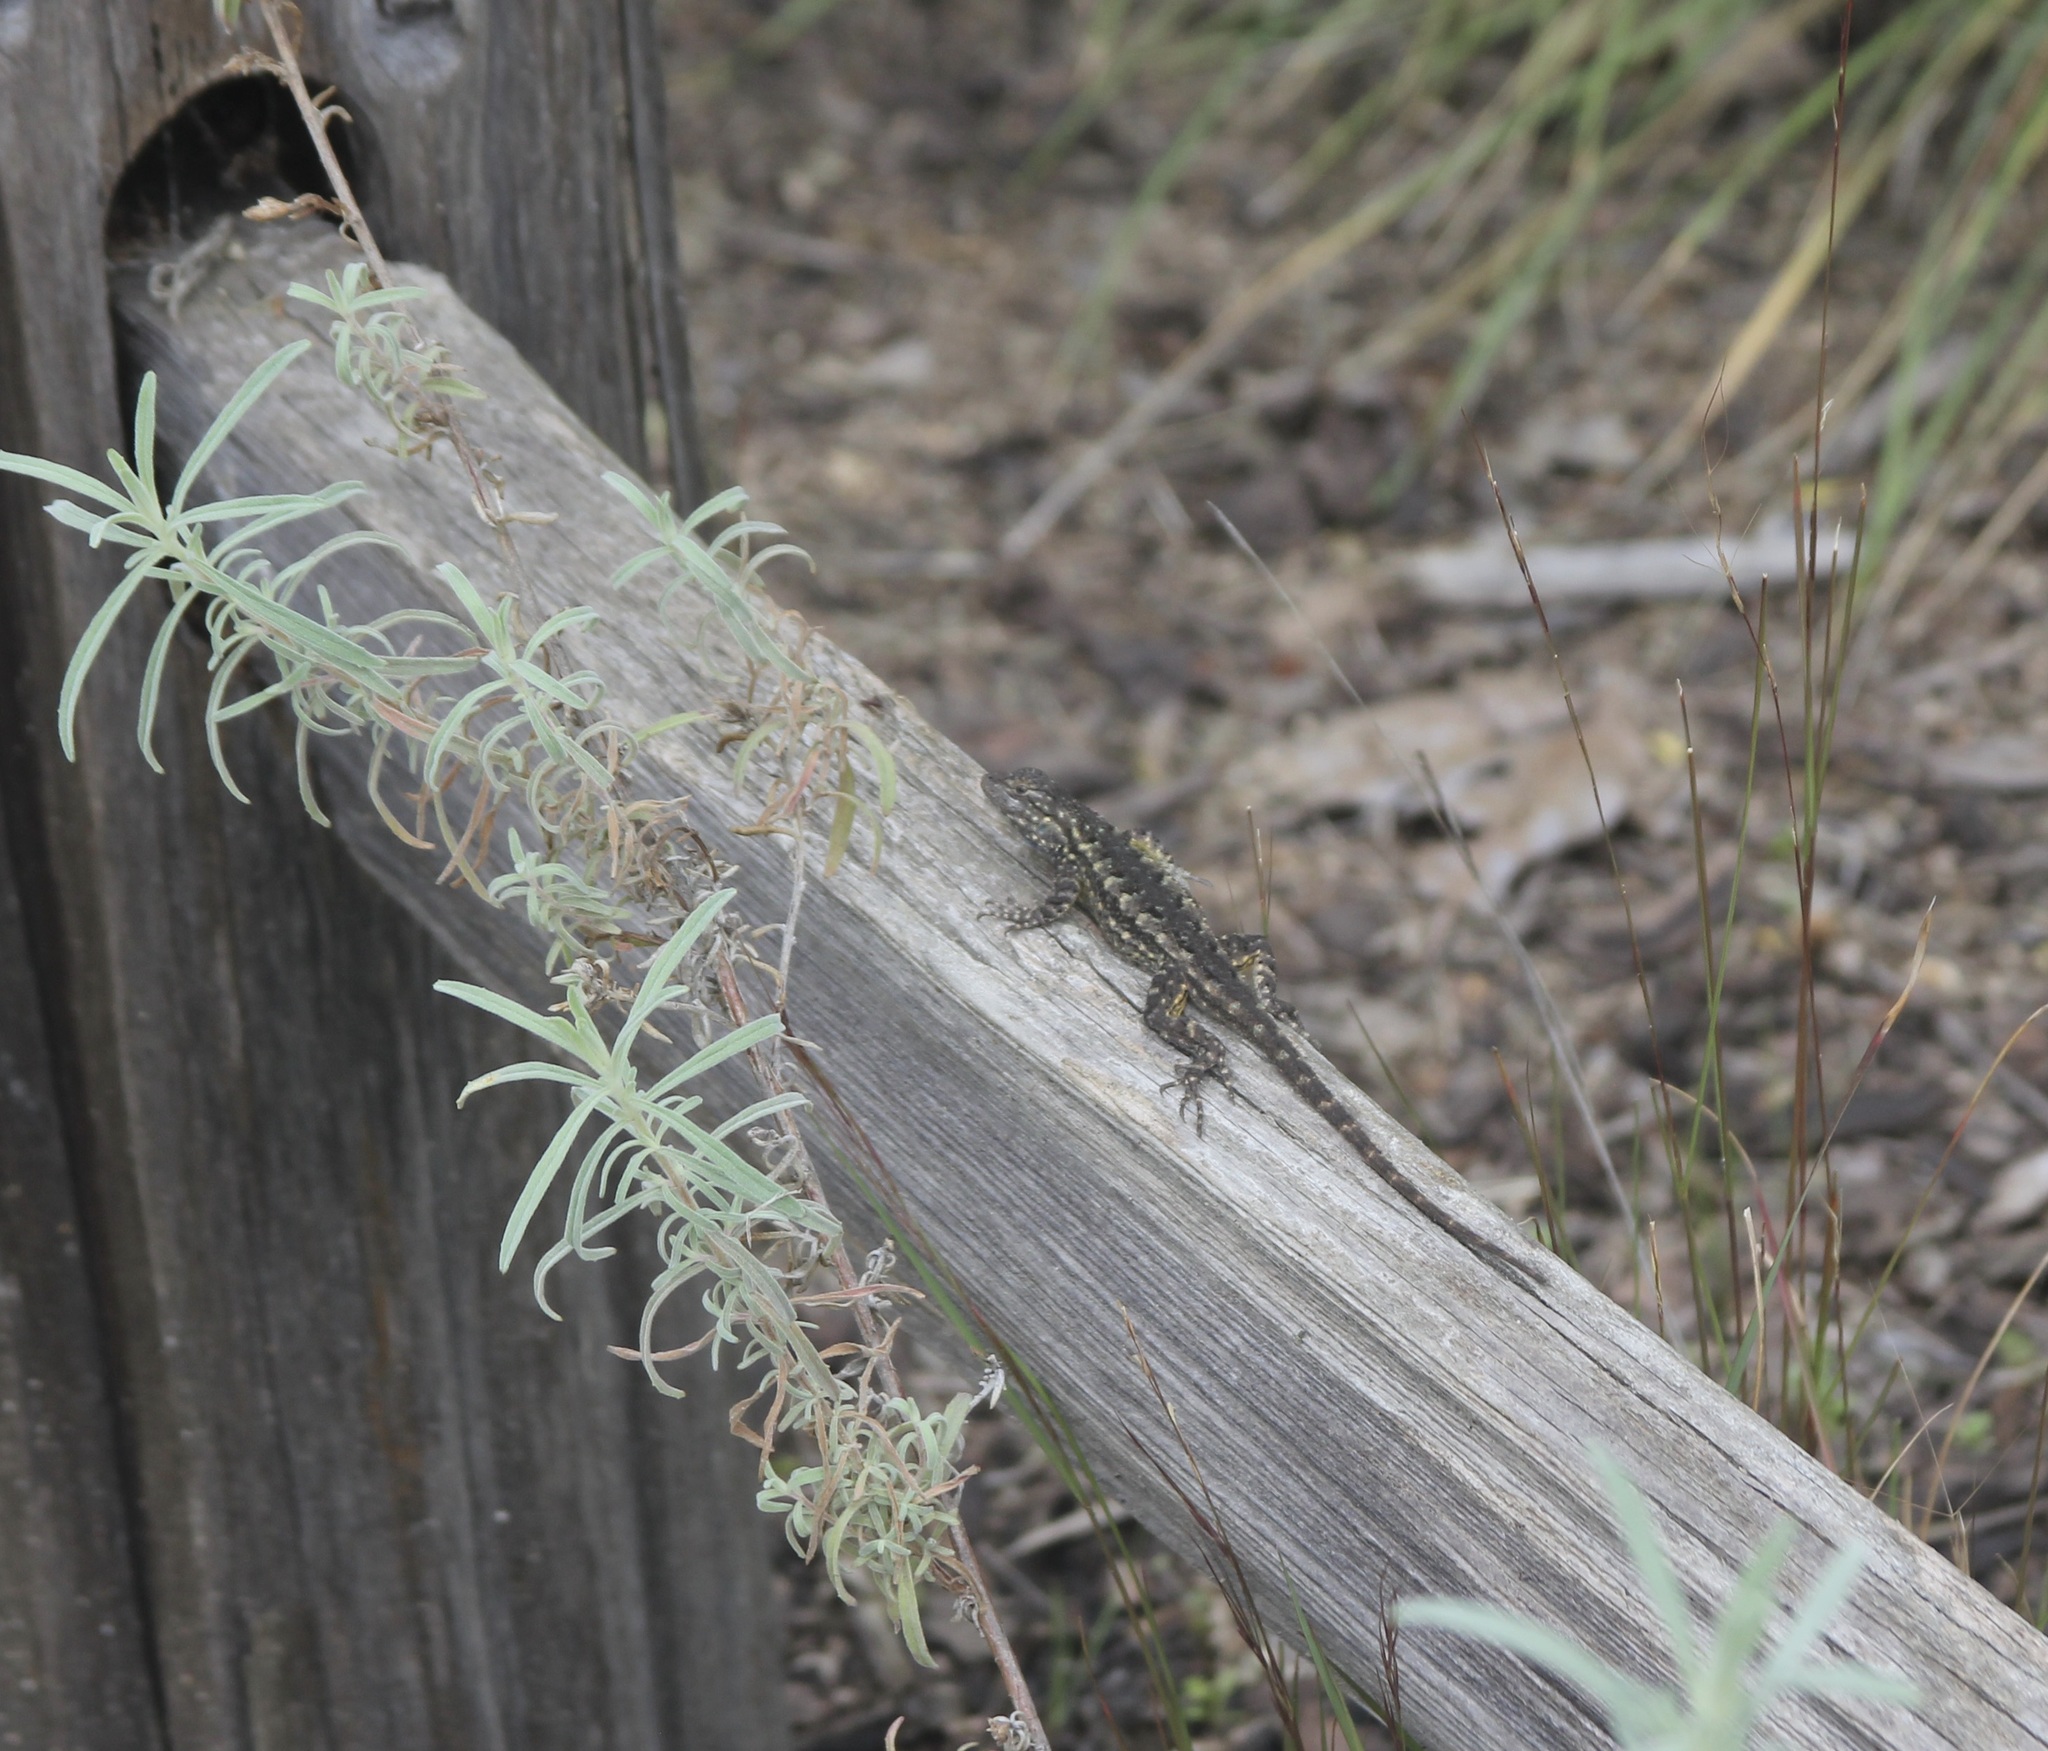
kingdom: Animalia
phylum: Chordata
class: Squamata
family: Phrynosomatidae
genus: Sceloporus
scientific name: Sceloporus occidentalis
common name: Western fence lizard
